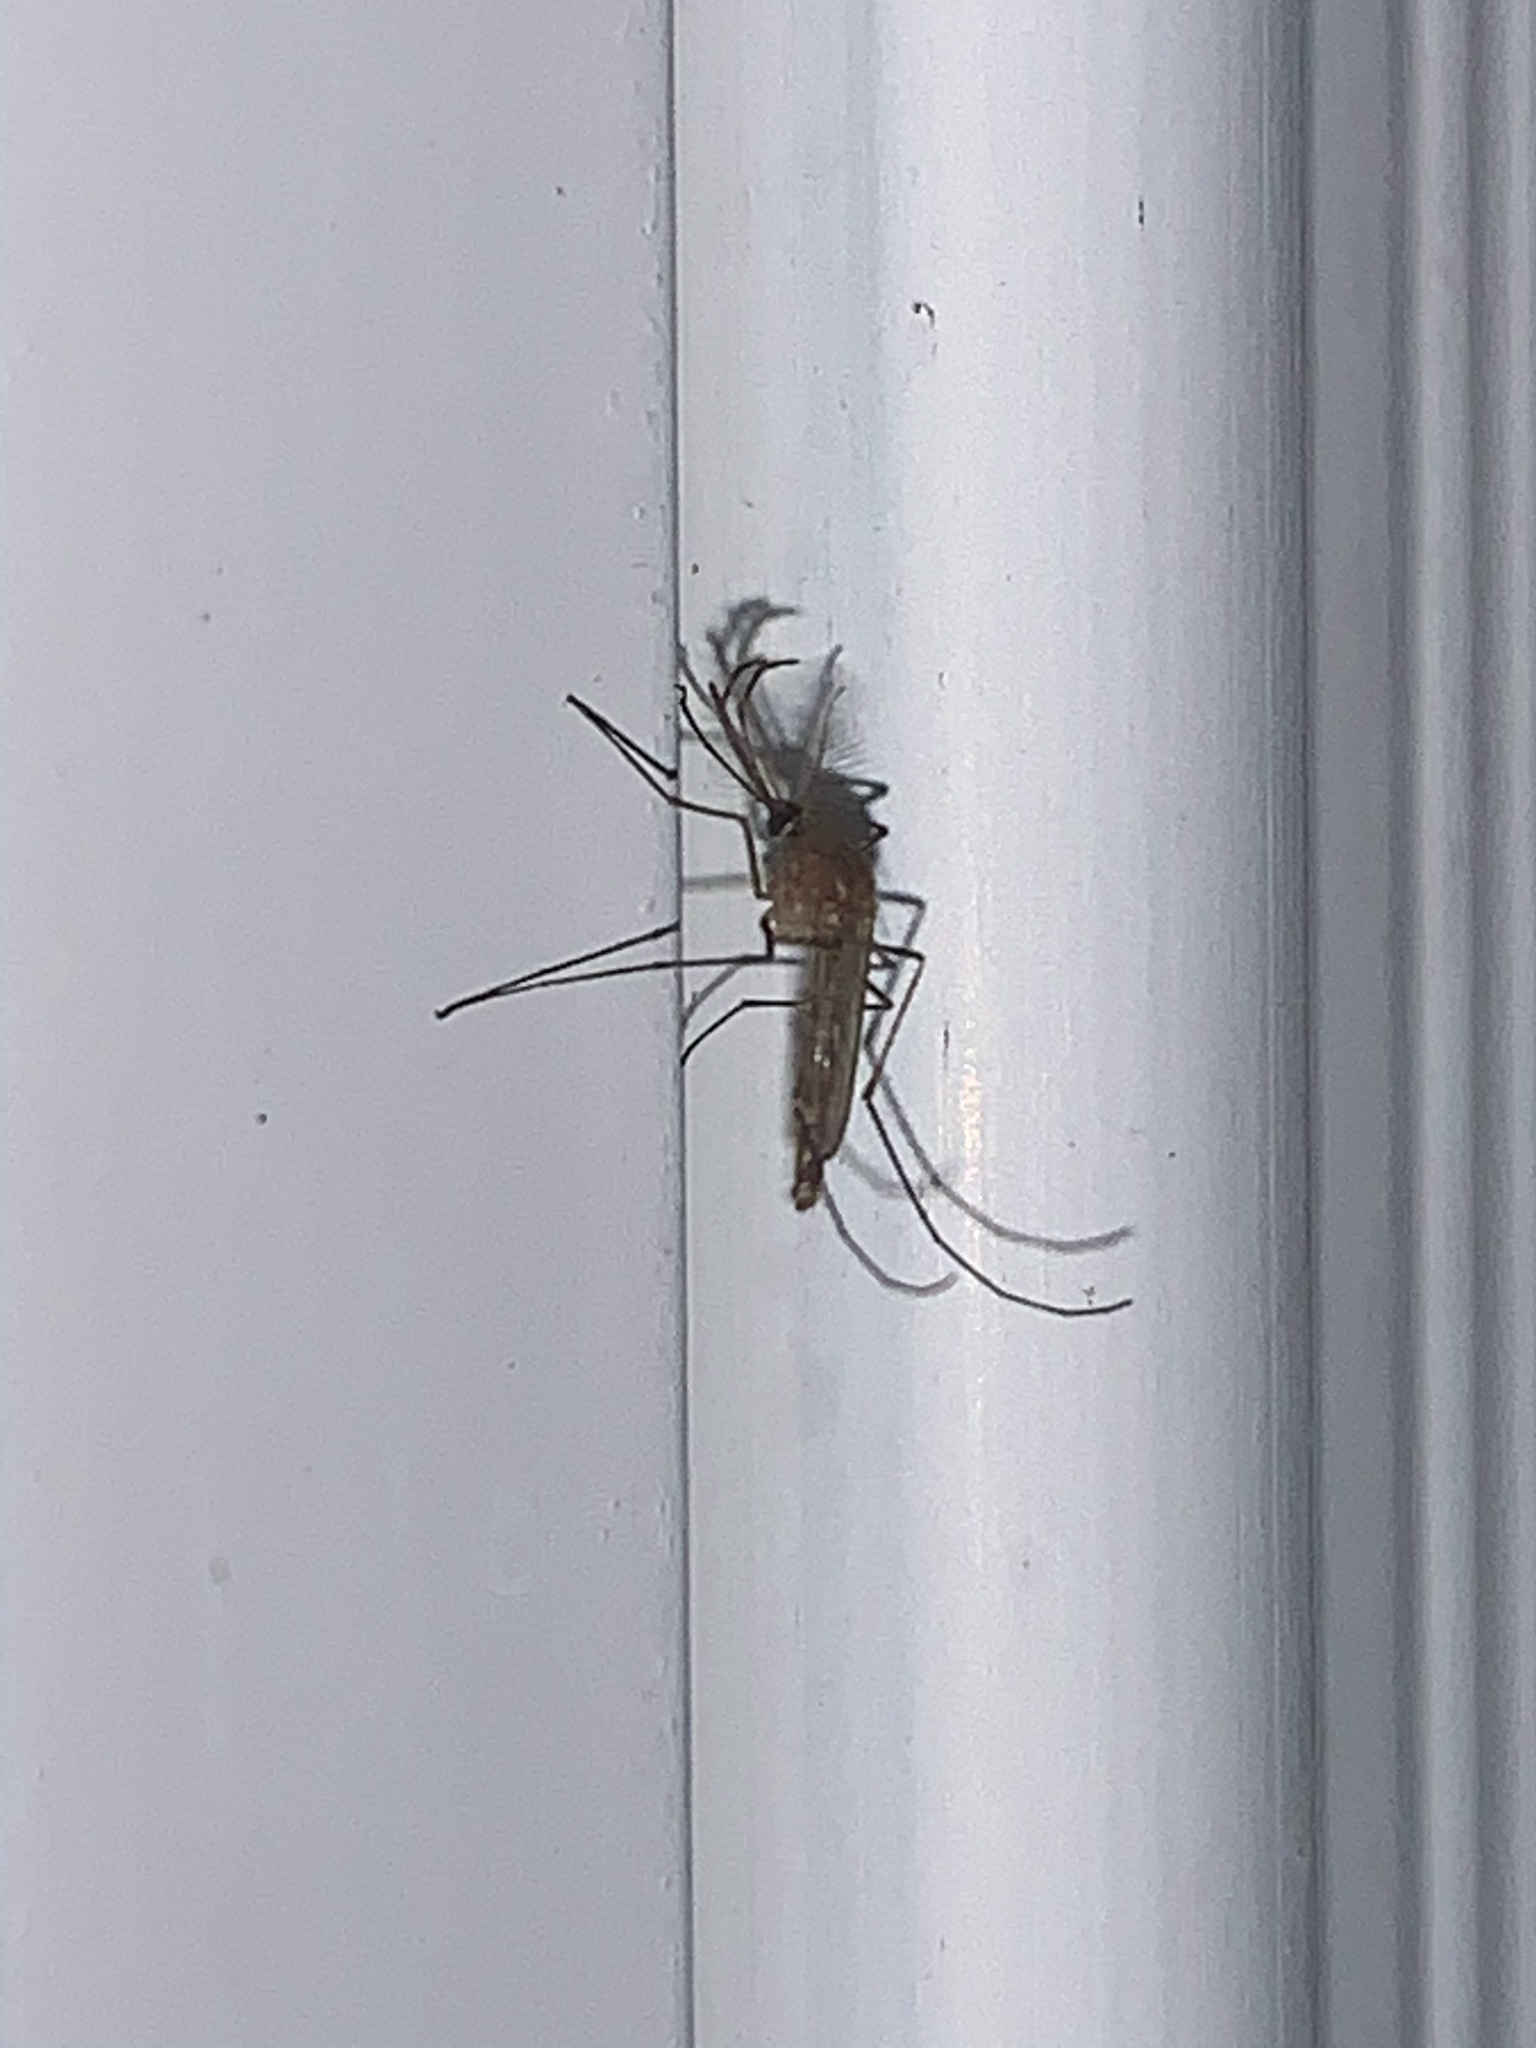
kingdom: Animalia
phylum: Arthropoda
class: Insecta
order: Diptera
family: Culicidae
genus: Culex
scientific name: Culex
